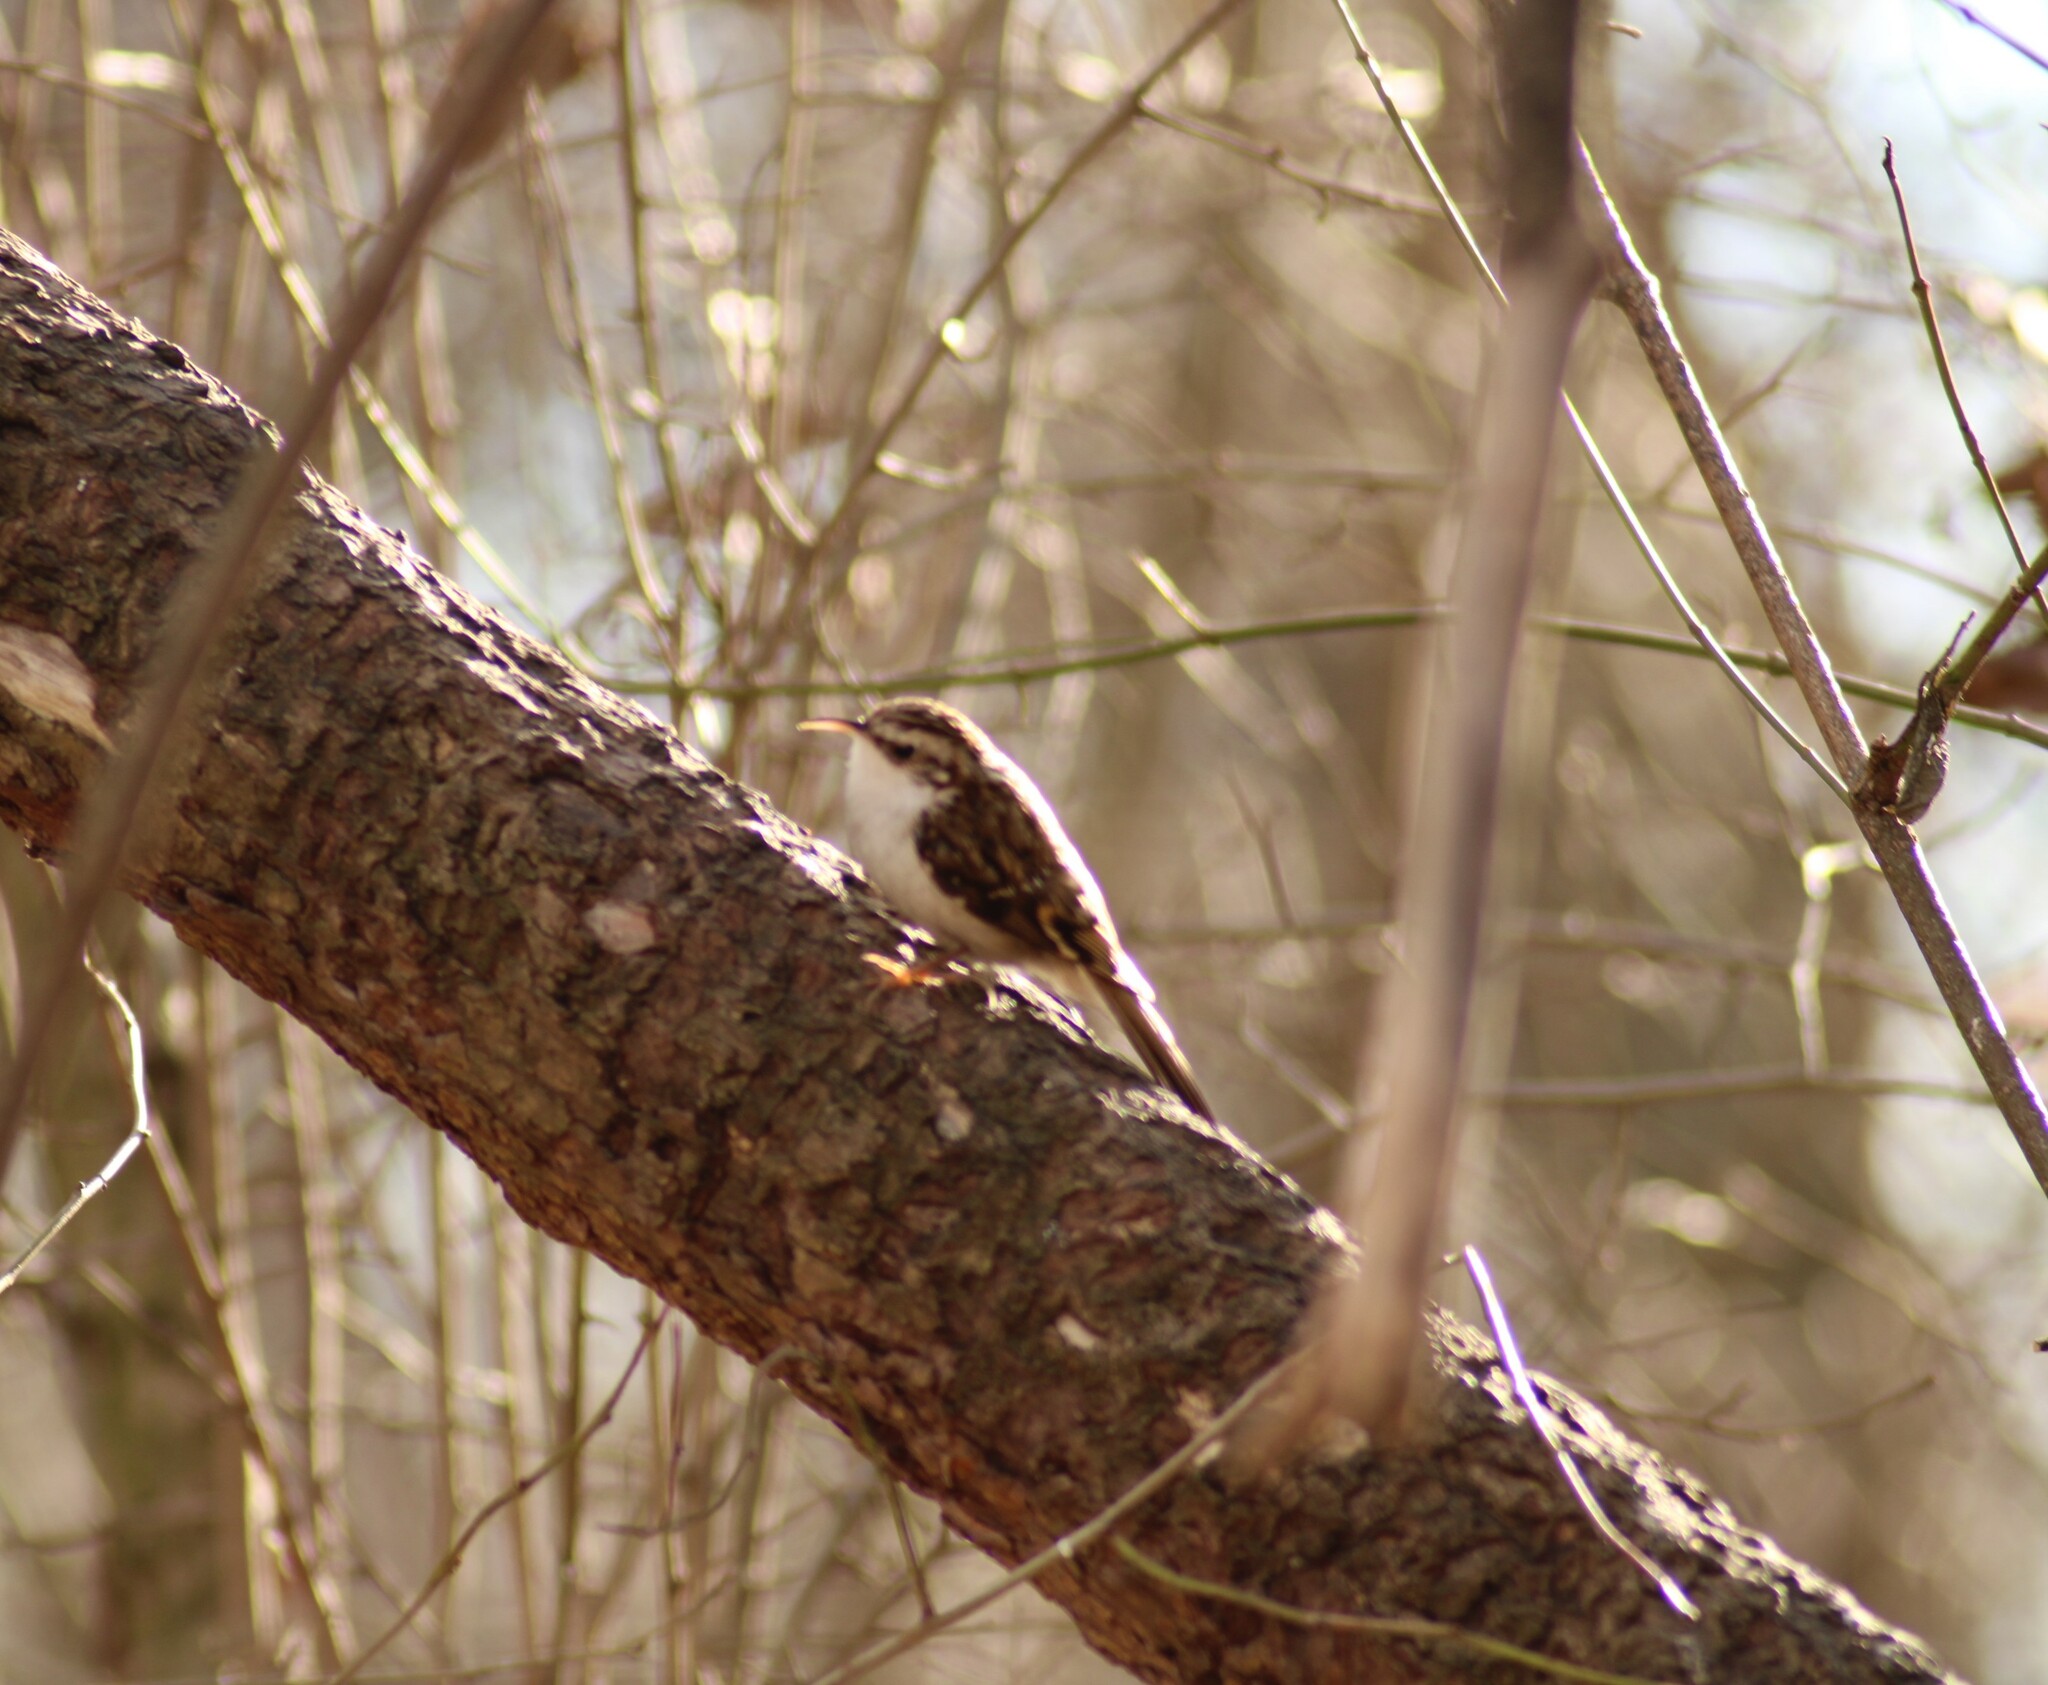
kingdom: Animalia
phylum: Chordata
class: Aves
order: Passeriformes
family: Certhiidae
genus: Certhia
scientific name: Certhia familiaris
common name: Eurasian treecreeper
